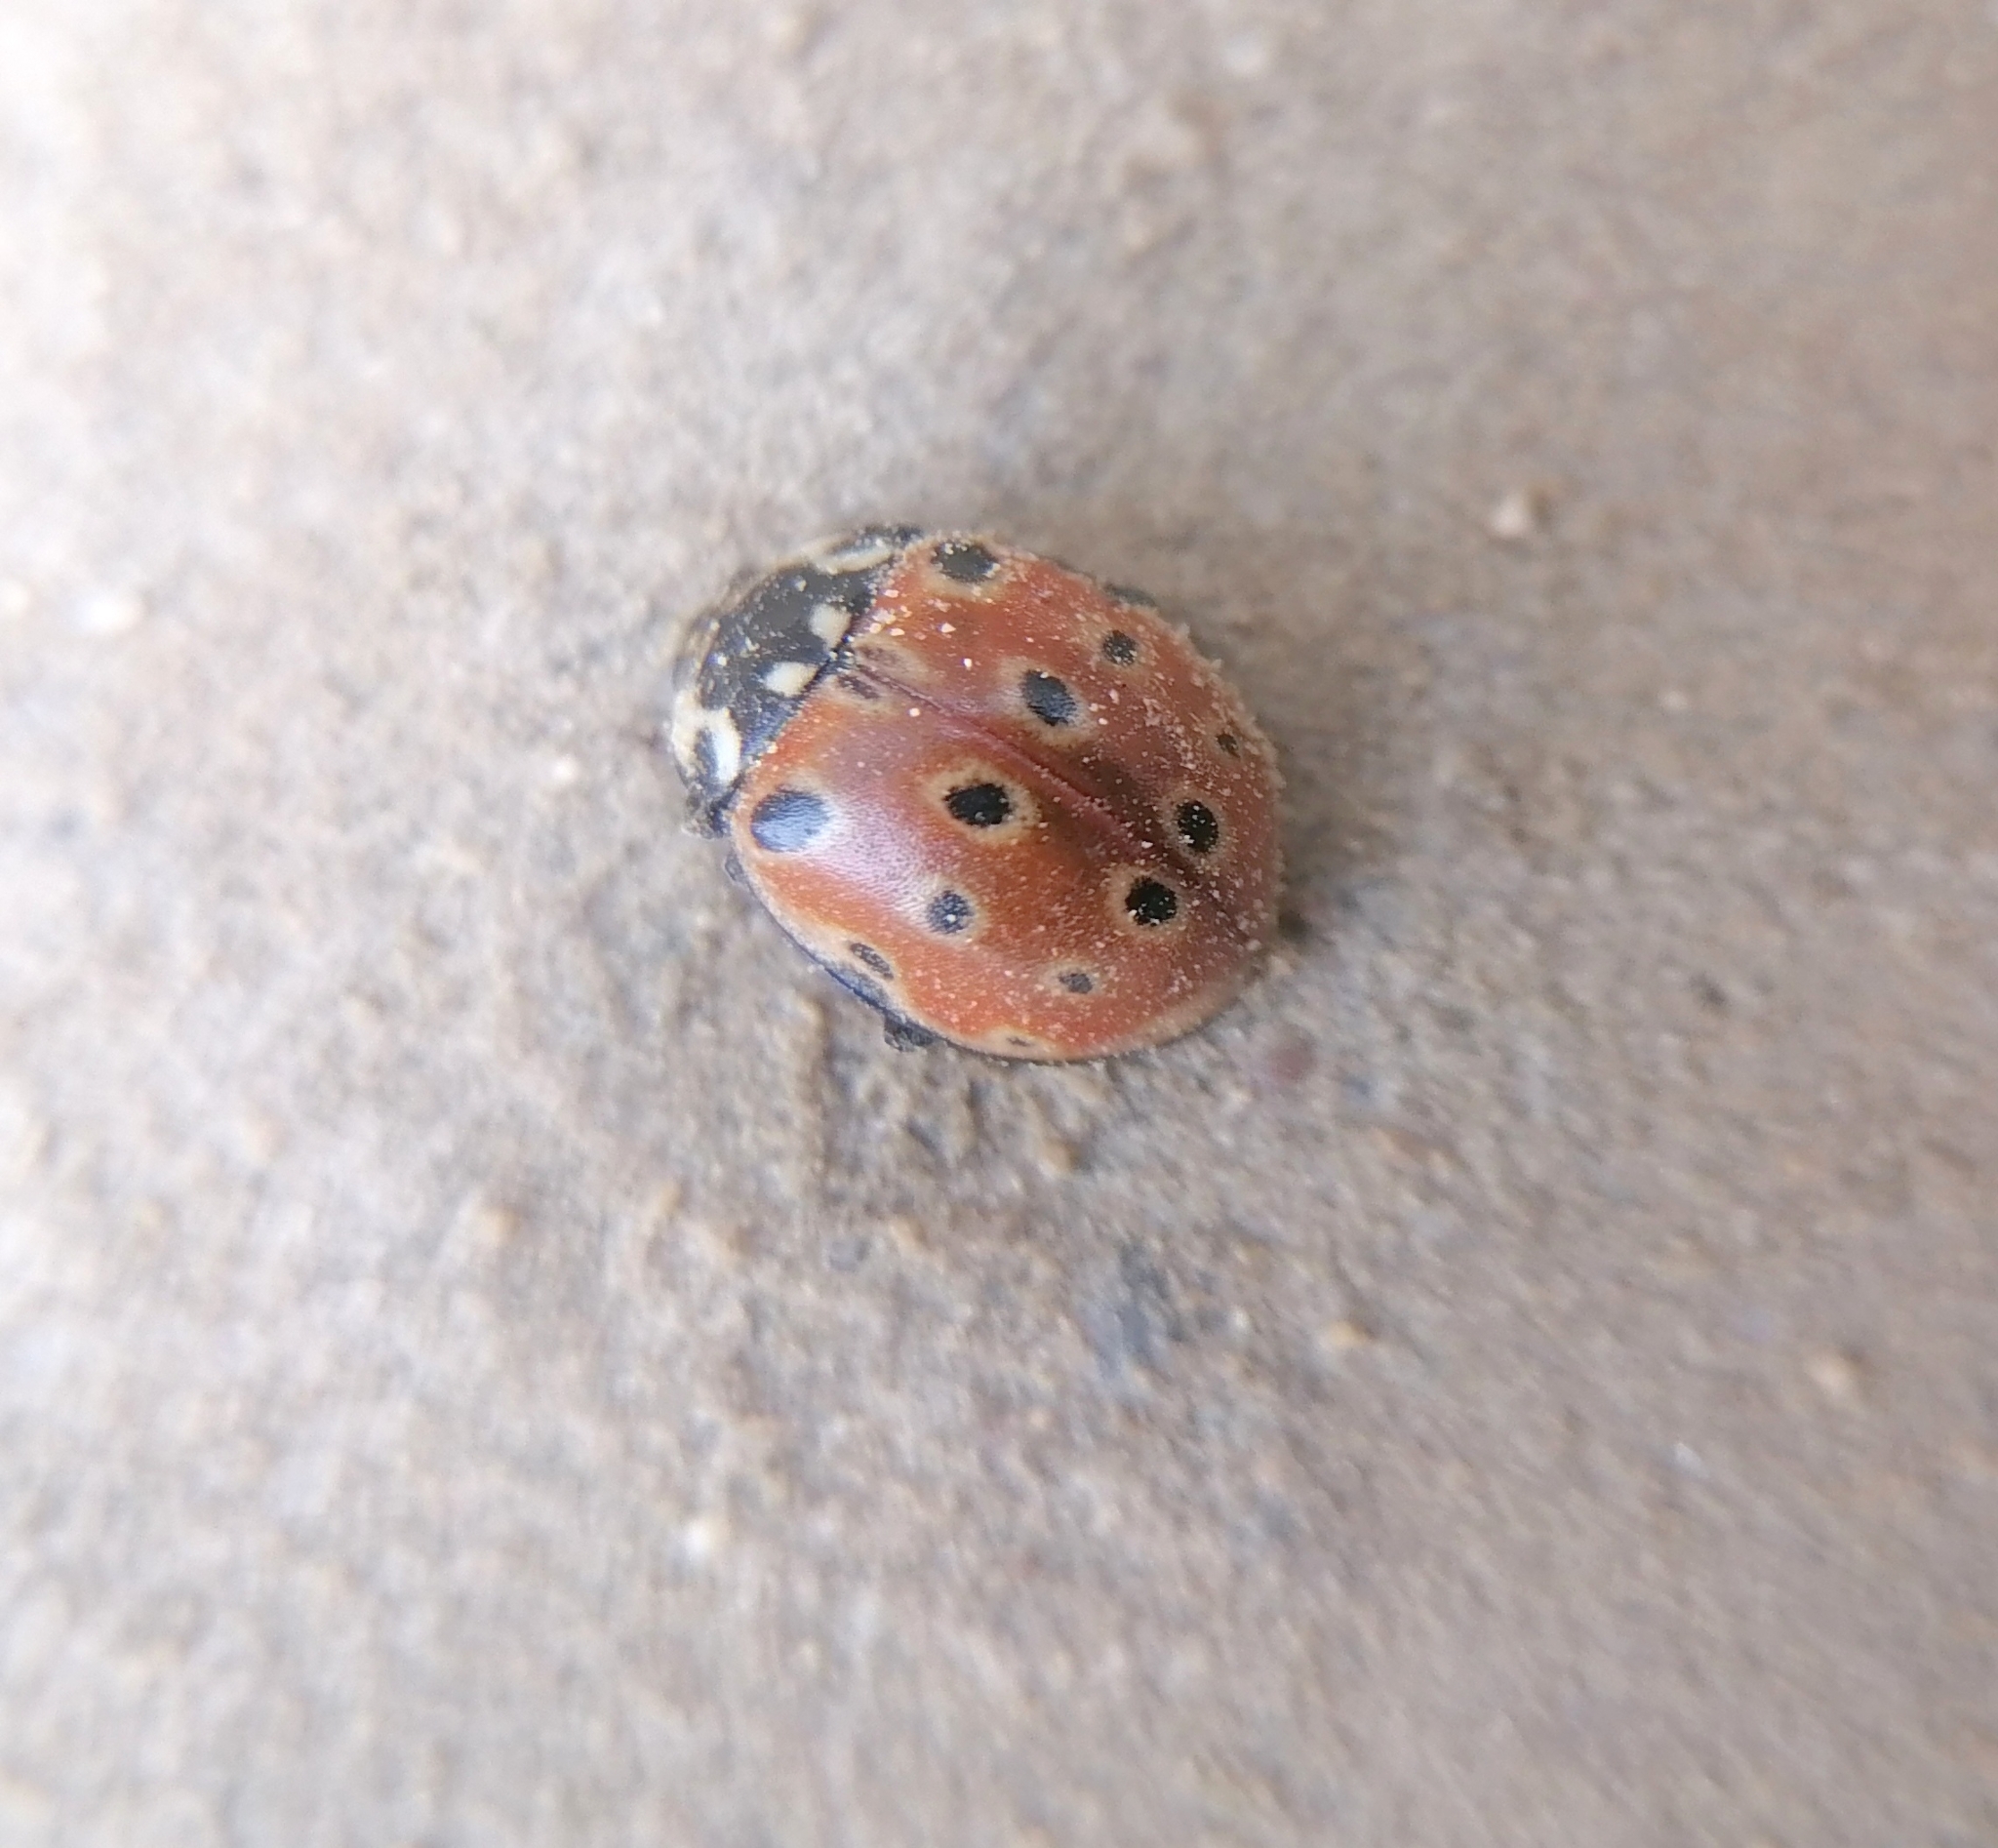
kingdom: Animalia
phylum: Arthropoda
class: Insecta
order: Coleoptera
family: Coccinellidae
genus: Anatis
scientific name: Anatis ocellata
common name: Eyed ladybird
